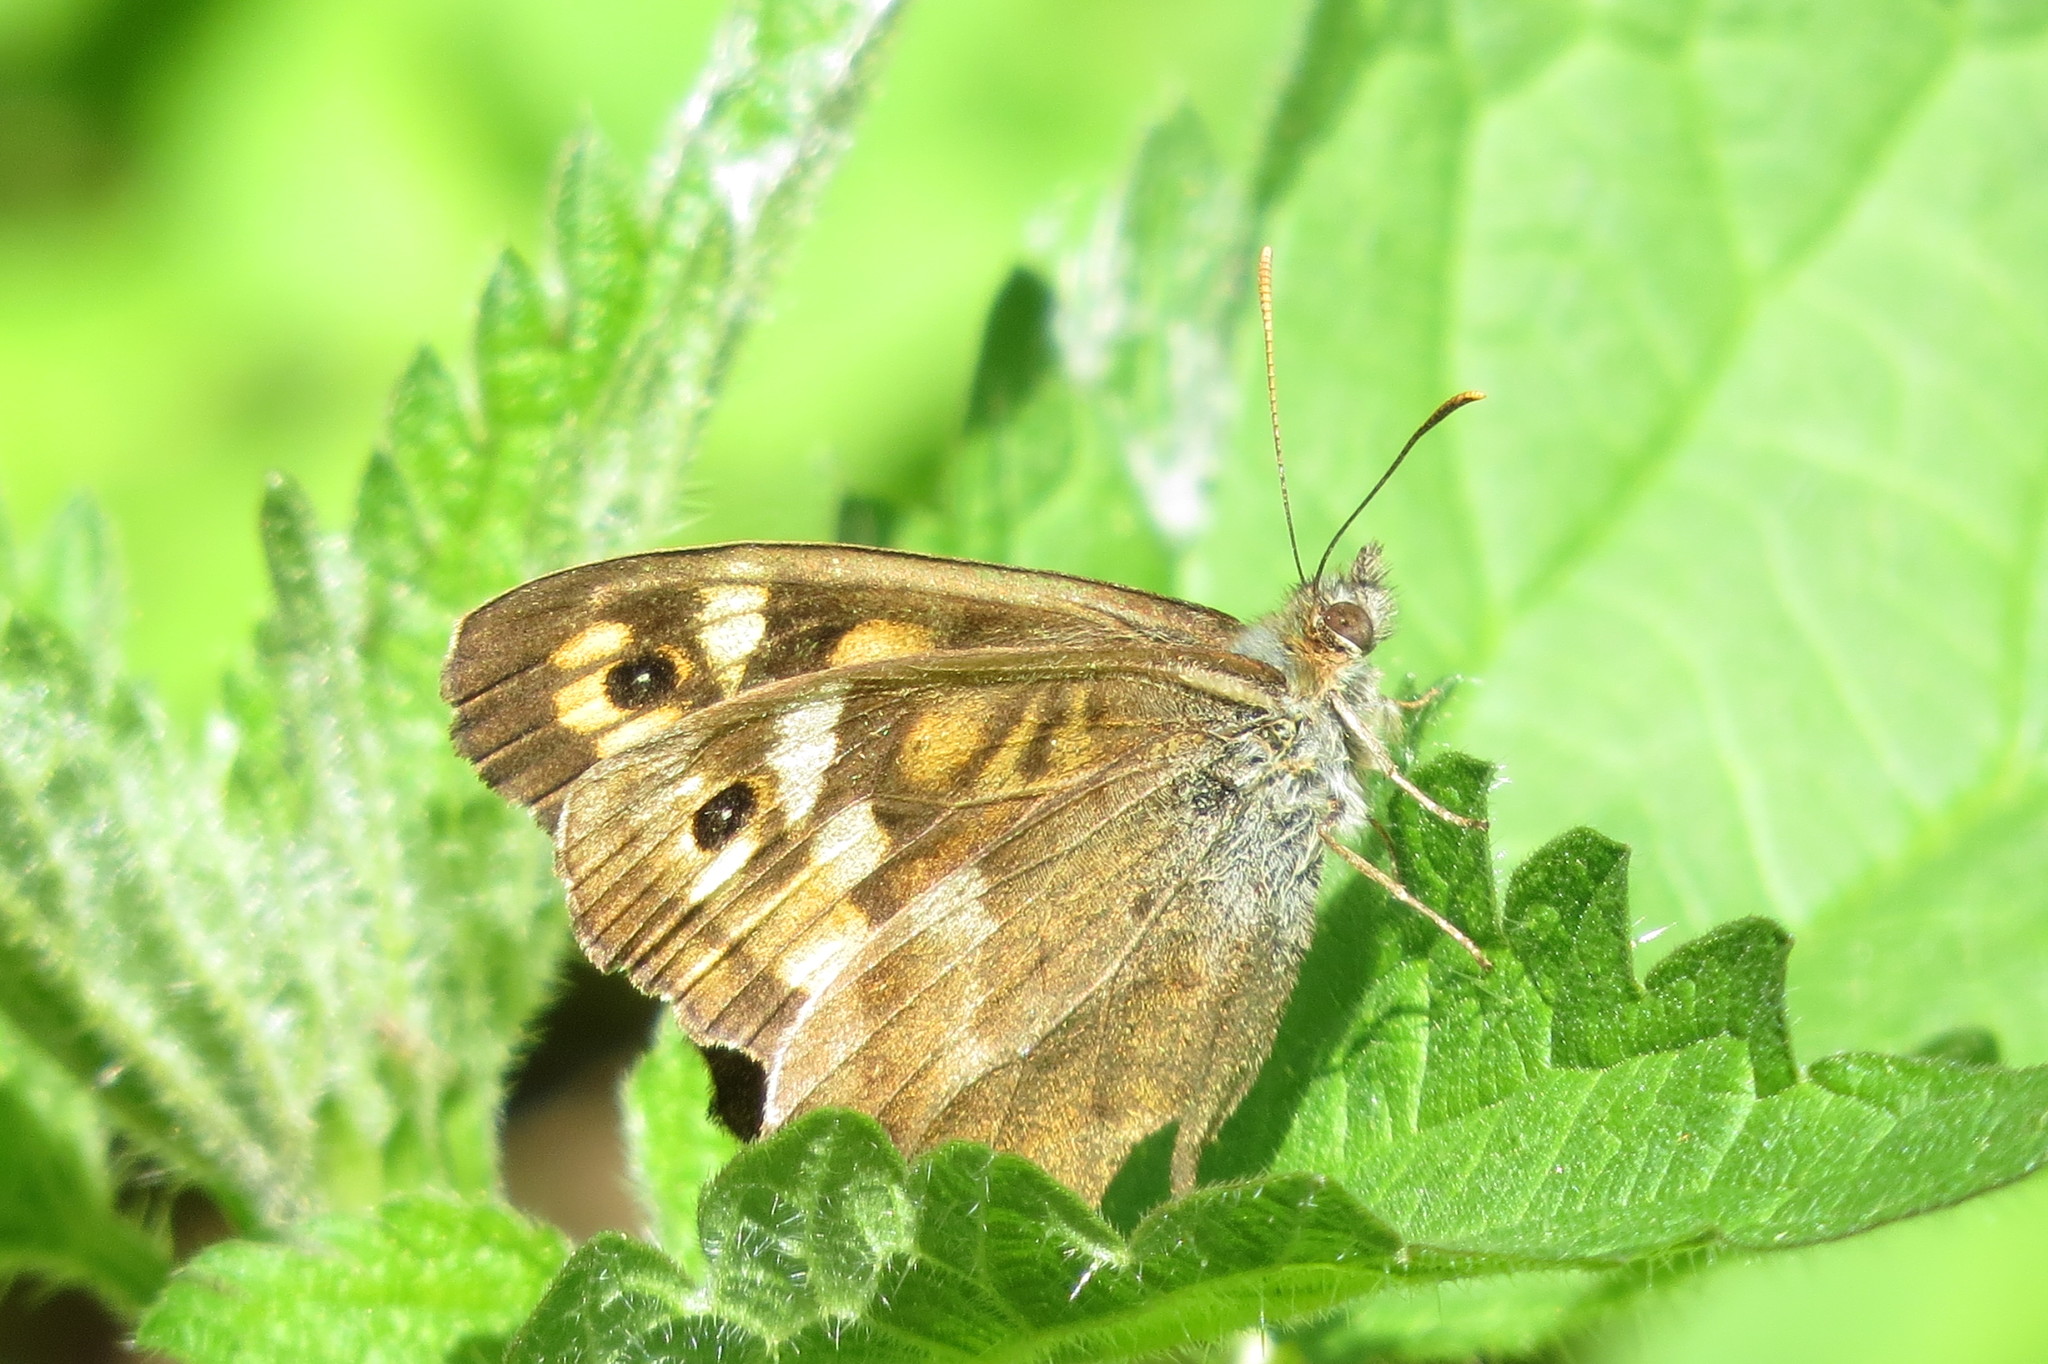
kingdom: Animalia
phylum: Arthropoda
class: Insecta
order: Lepidoptera
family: Nymphalidae
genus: Pararge
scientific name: Pararge aegeria
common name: Speckled wood
